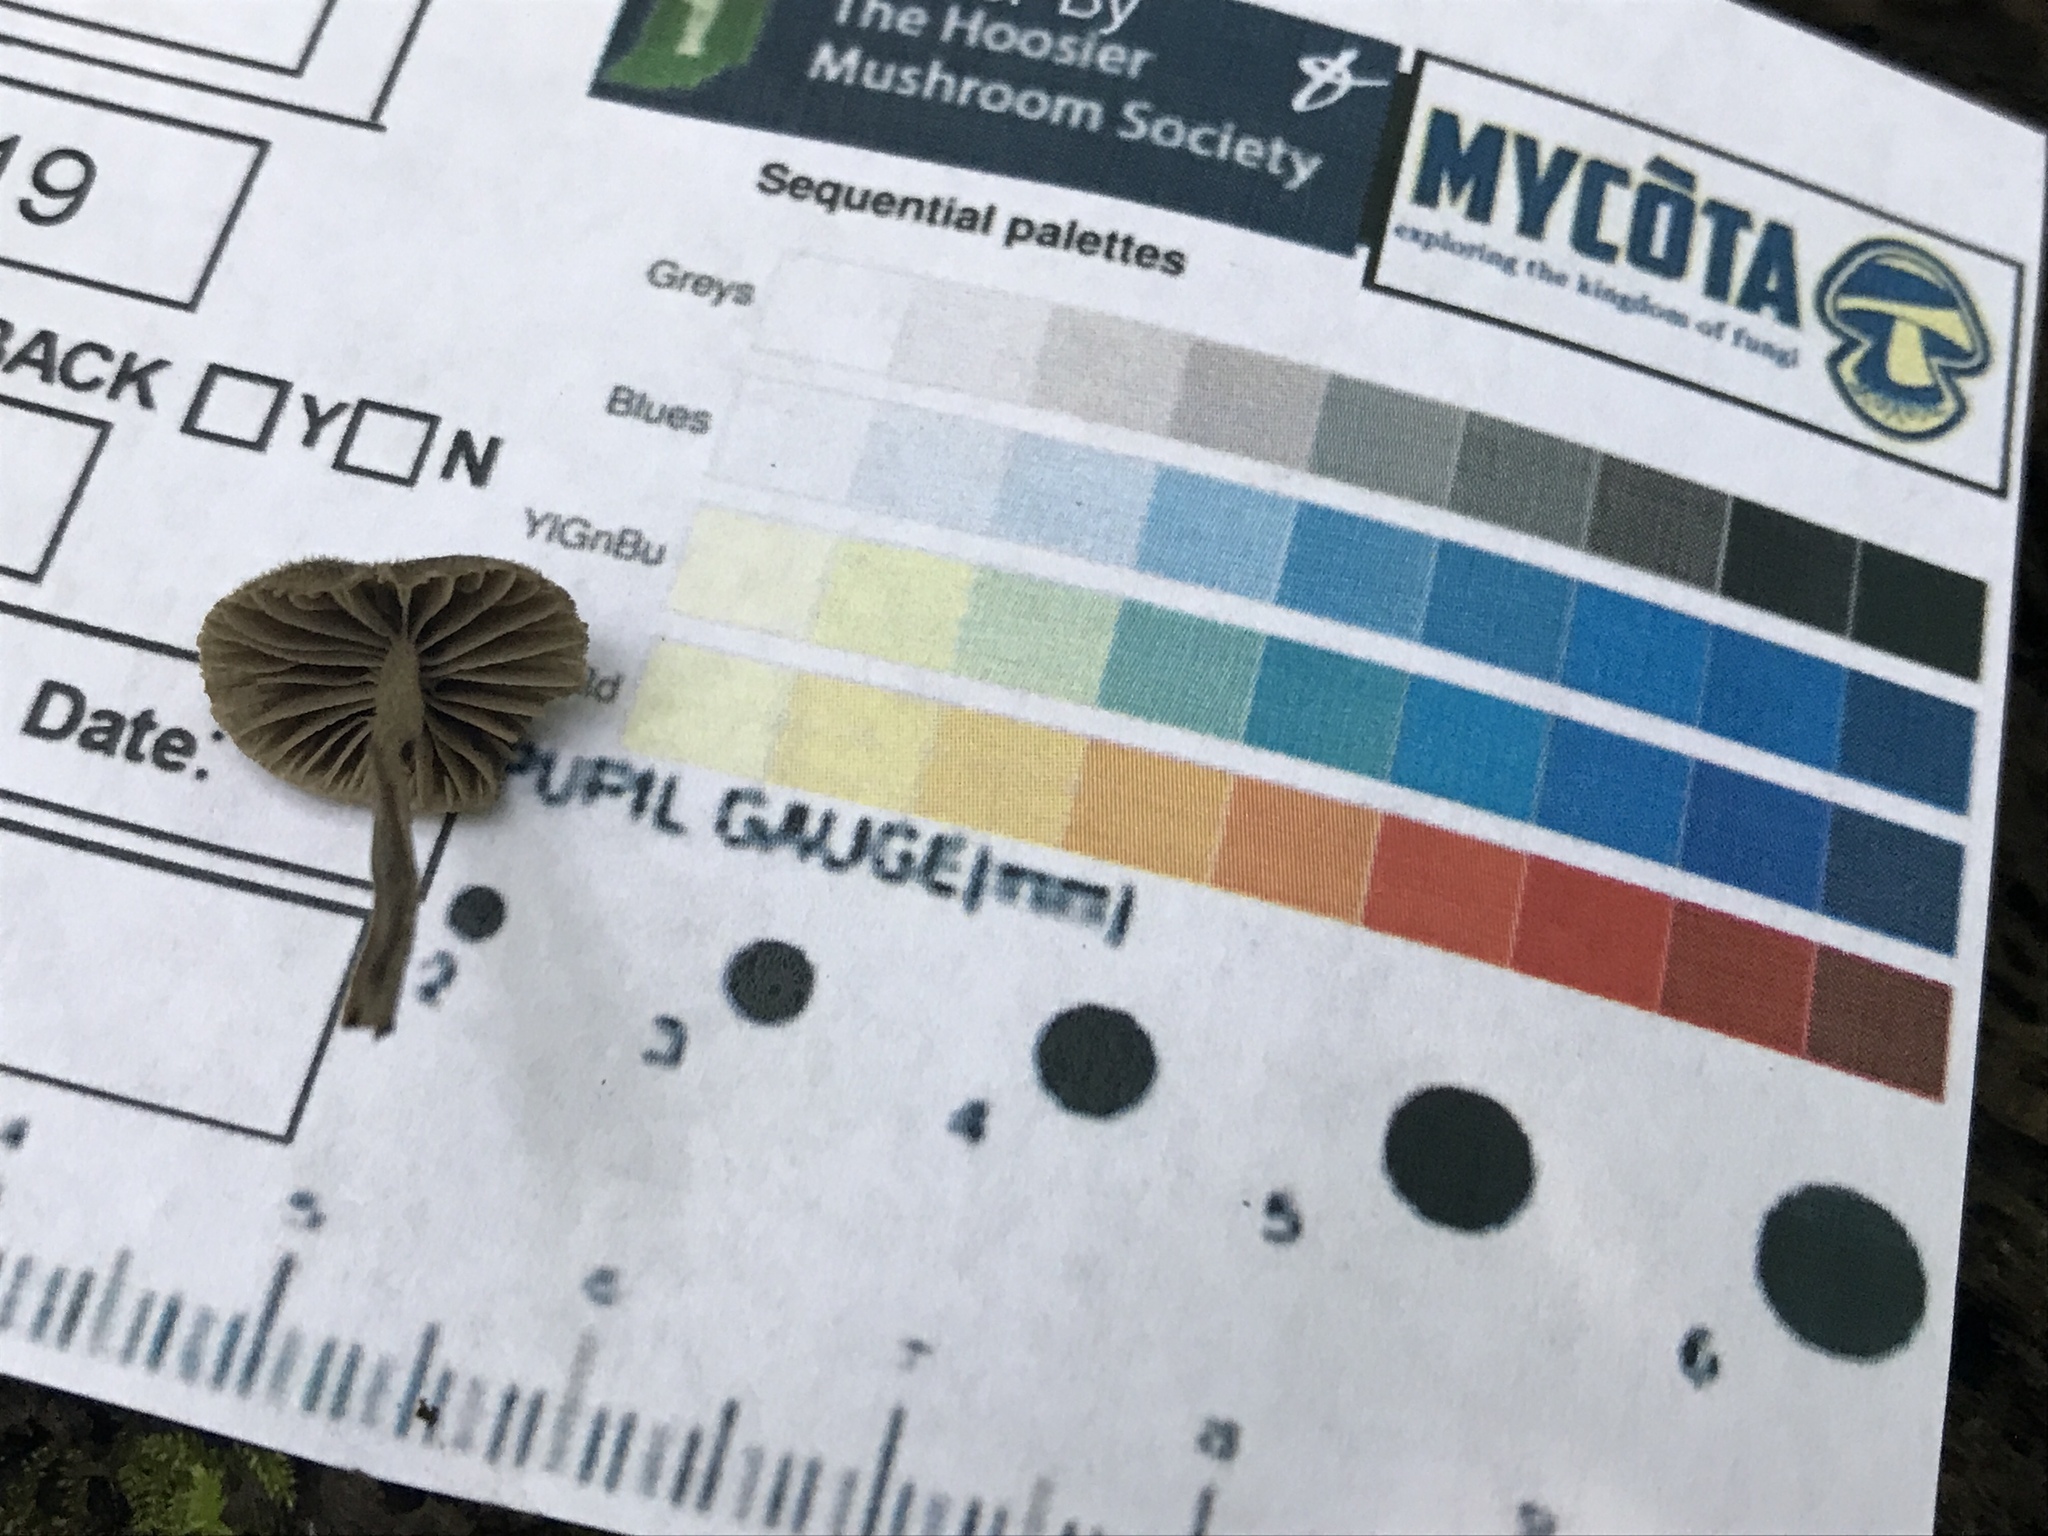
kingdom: Fungi
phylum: Basidiomycota
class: Agaricomycetes
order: Agaricales
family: Entolomataceae
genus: Entoloma
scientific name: Entoloma dysthaloides
